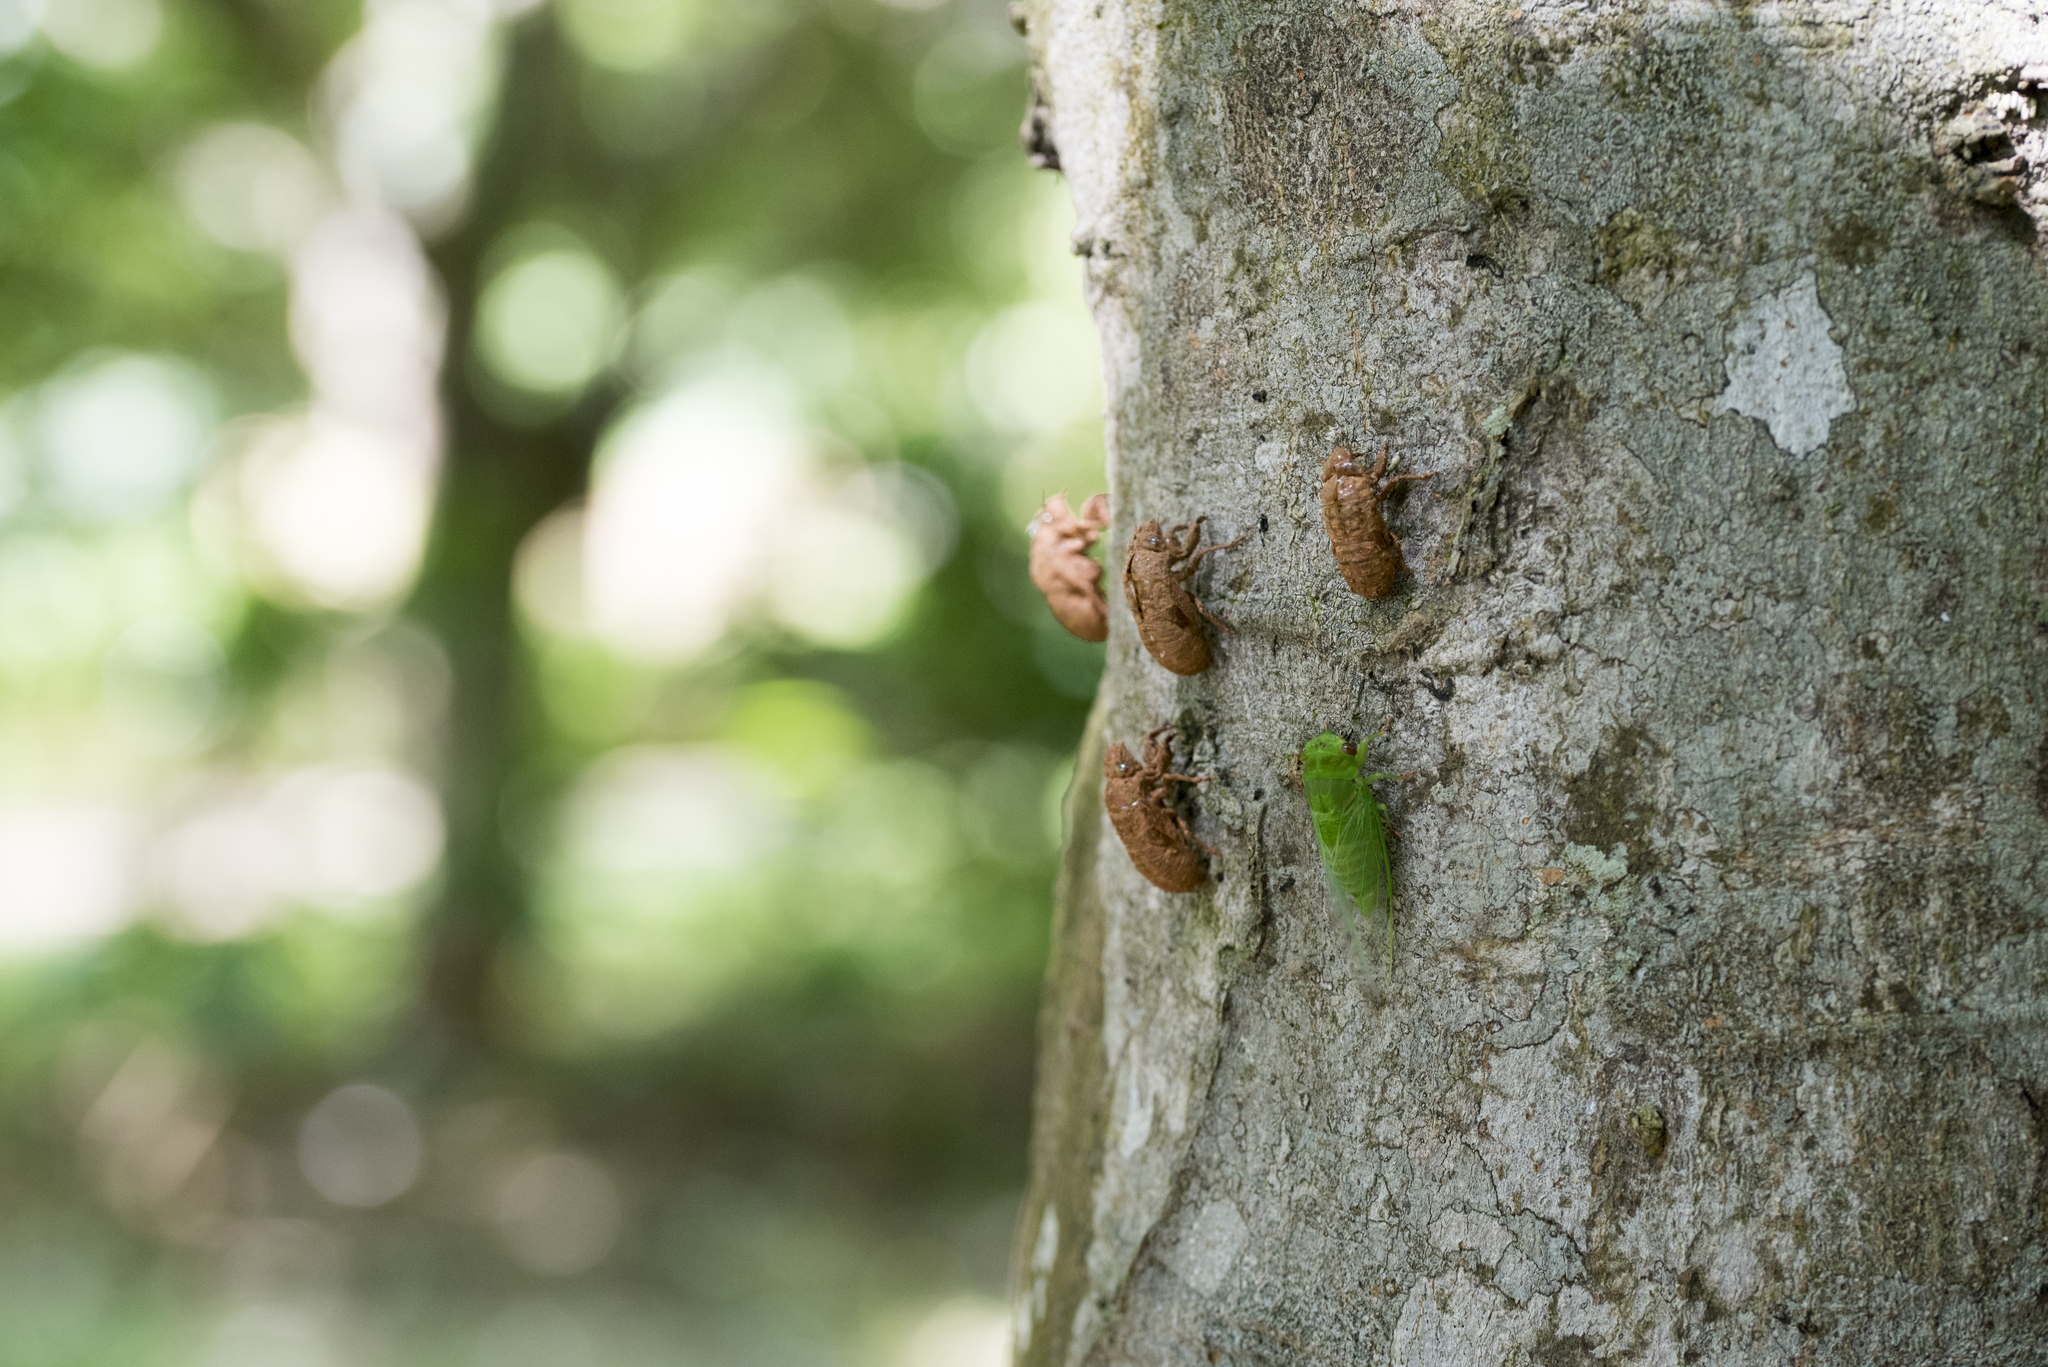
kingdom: Animalia
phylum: Arthropoda
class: Insecta
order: Hemiptera
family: Cicadidae
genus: Chremistica
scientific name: Chremistica ochracea
